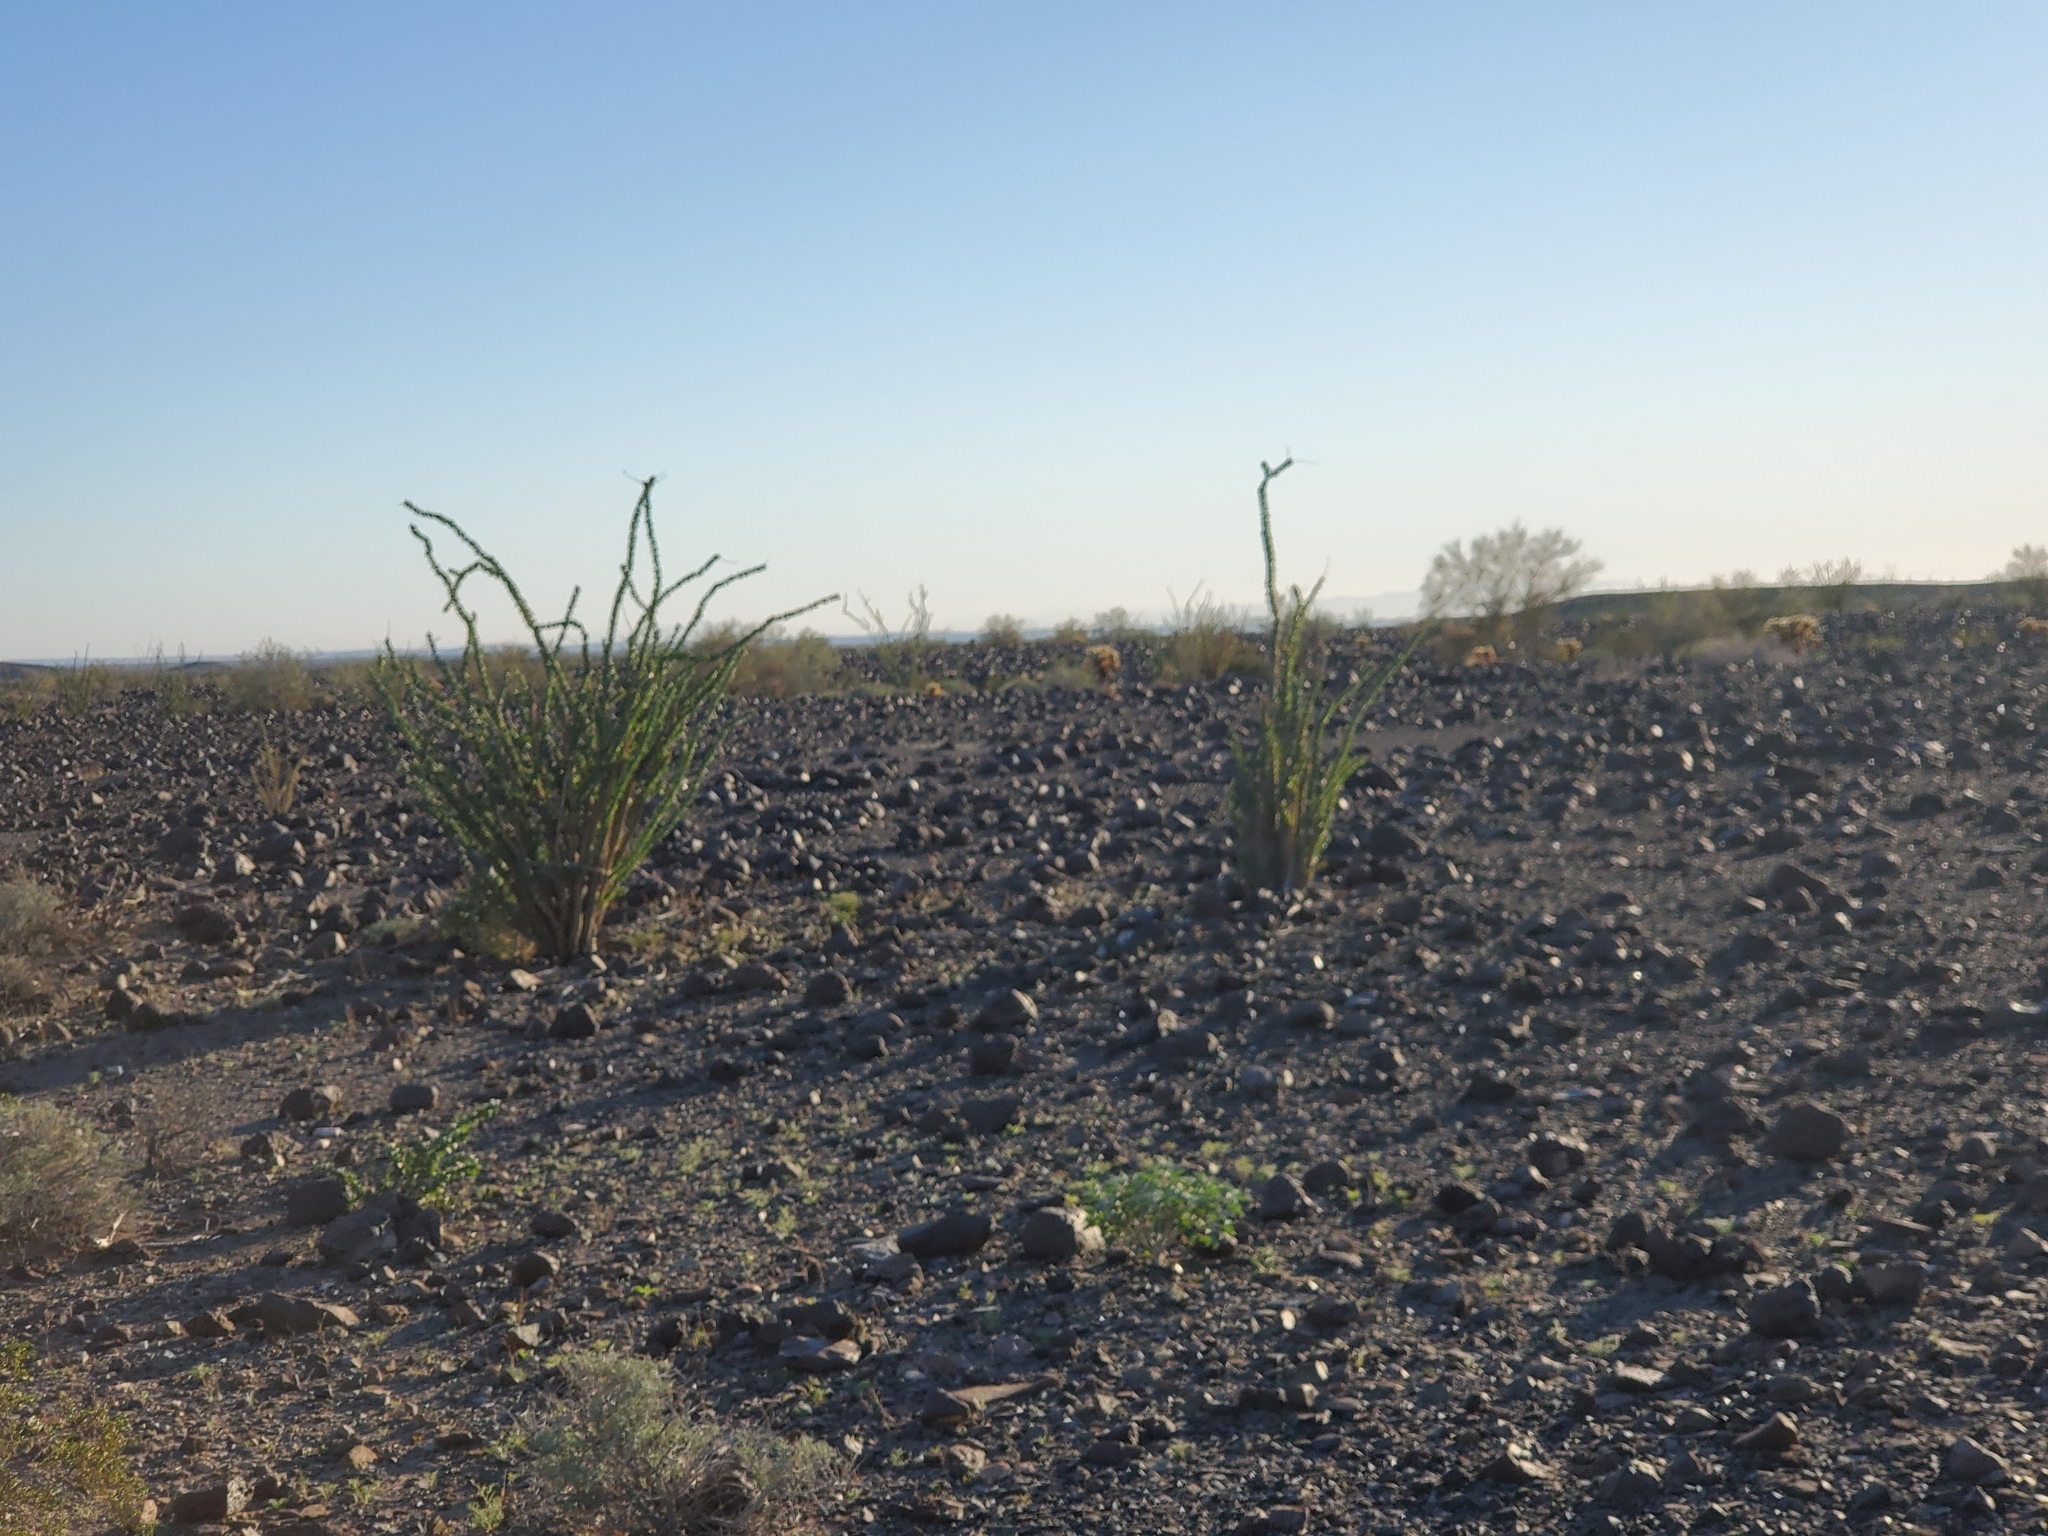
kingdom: Plantae
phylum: Tracheophyta
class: Magnoliopsida
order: Ericales
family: Fouquieriaceae
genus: Fouquieria
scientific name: Fouquieria splendens
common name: Vine-cactus
